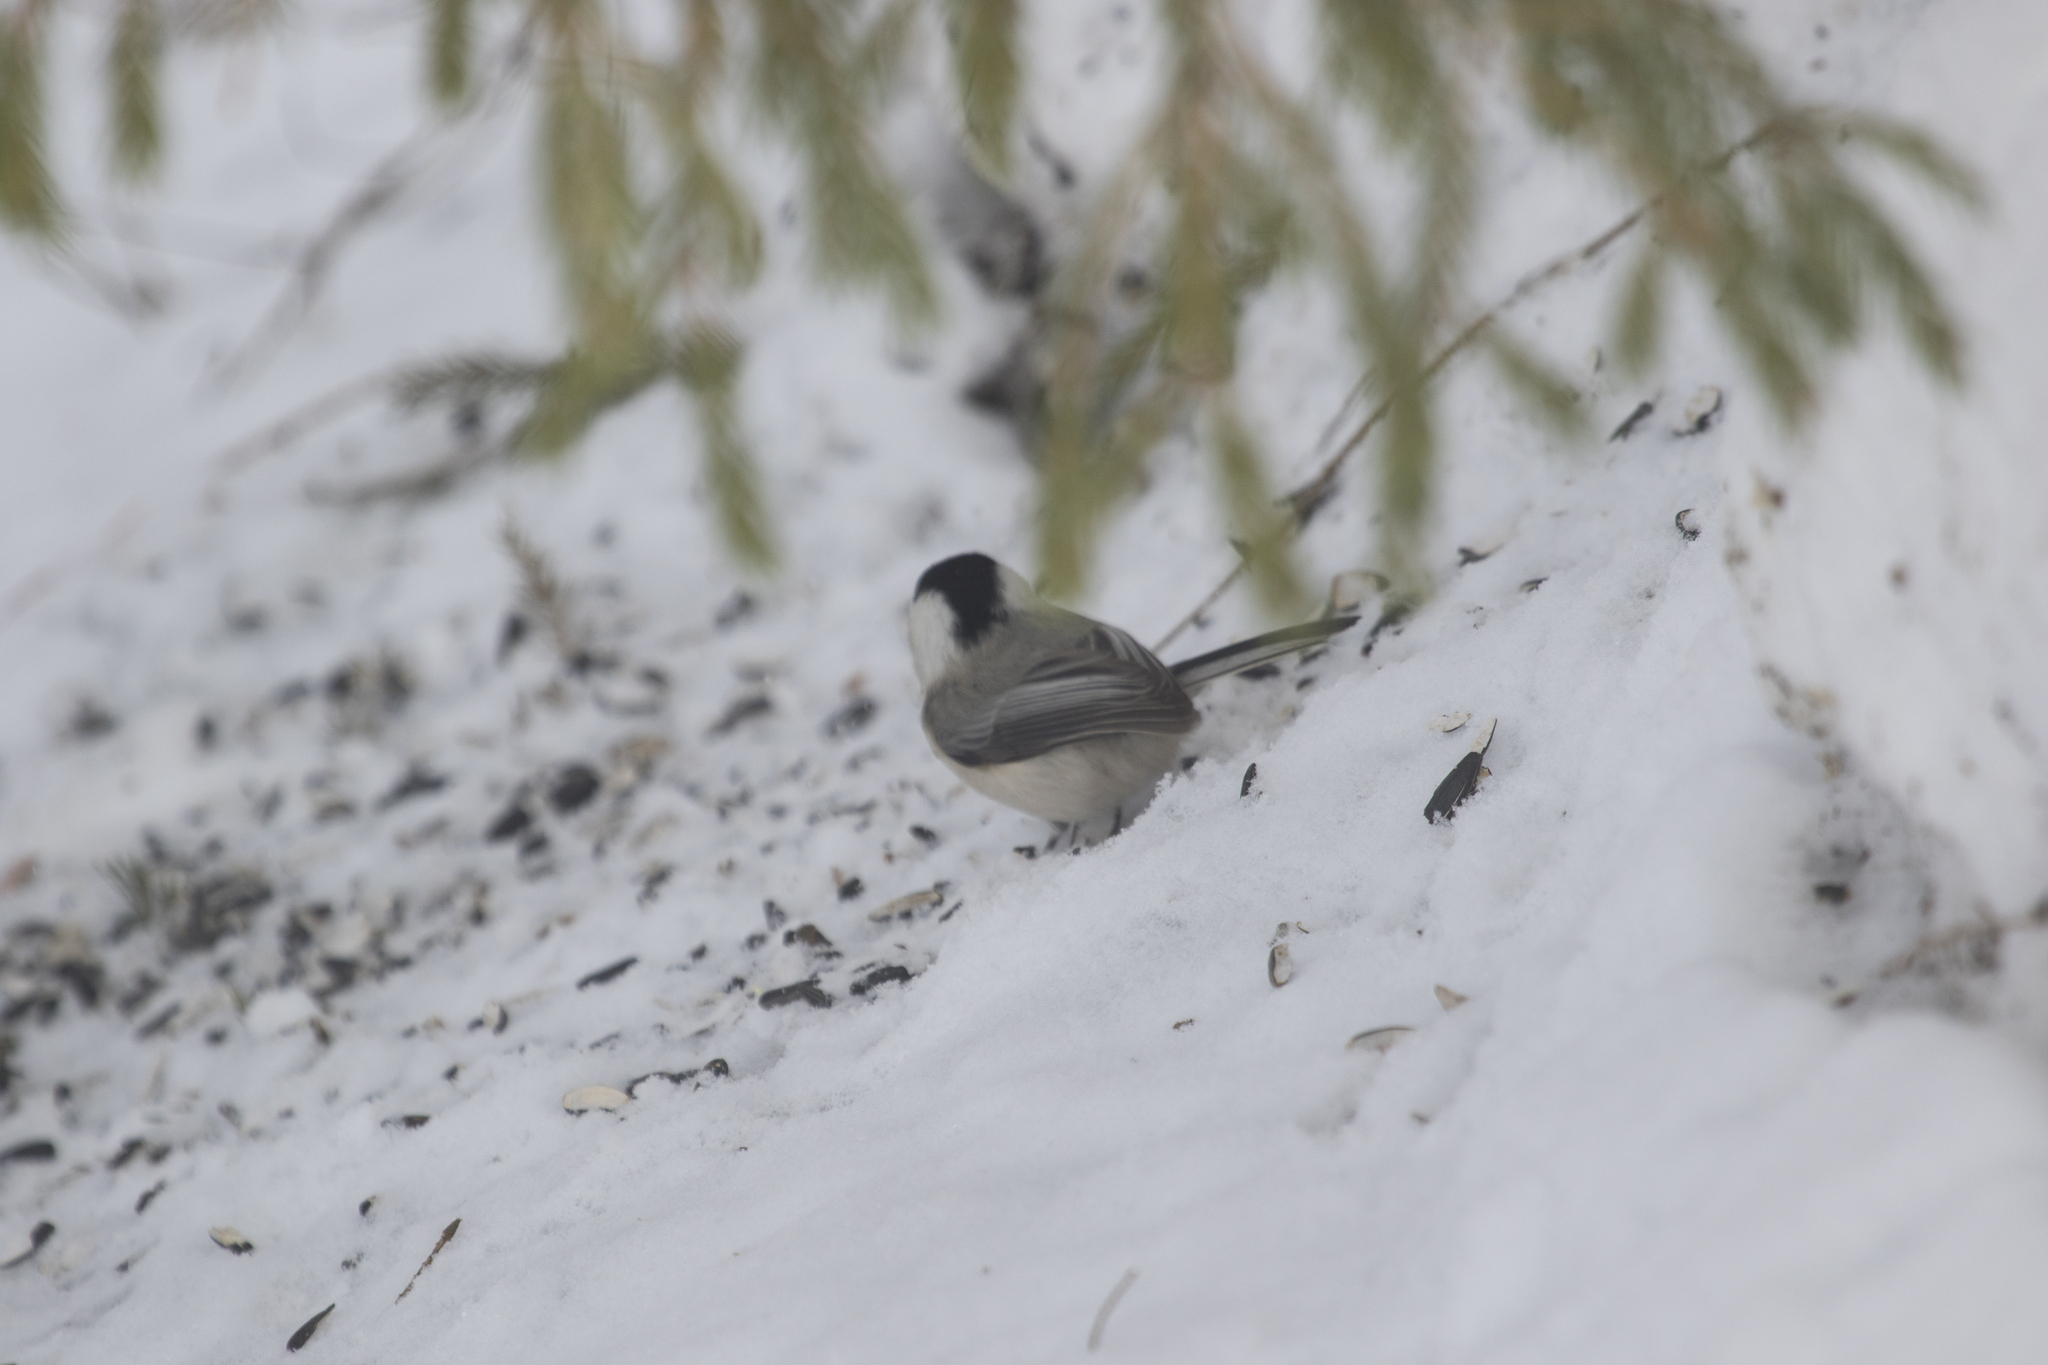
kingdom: Animalia
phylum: Chordata
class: Aves
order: Passeriformes
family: Paridae
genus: Poecile
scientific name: Poecile montanus
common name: Willow tit
